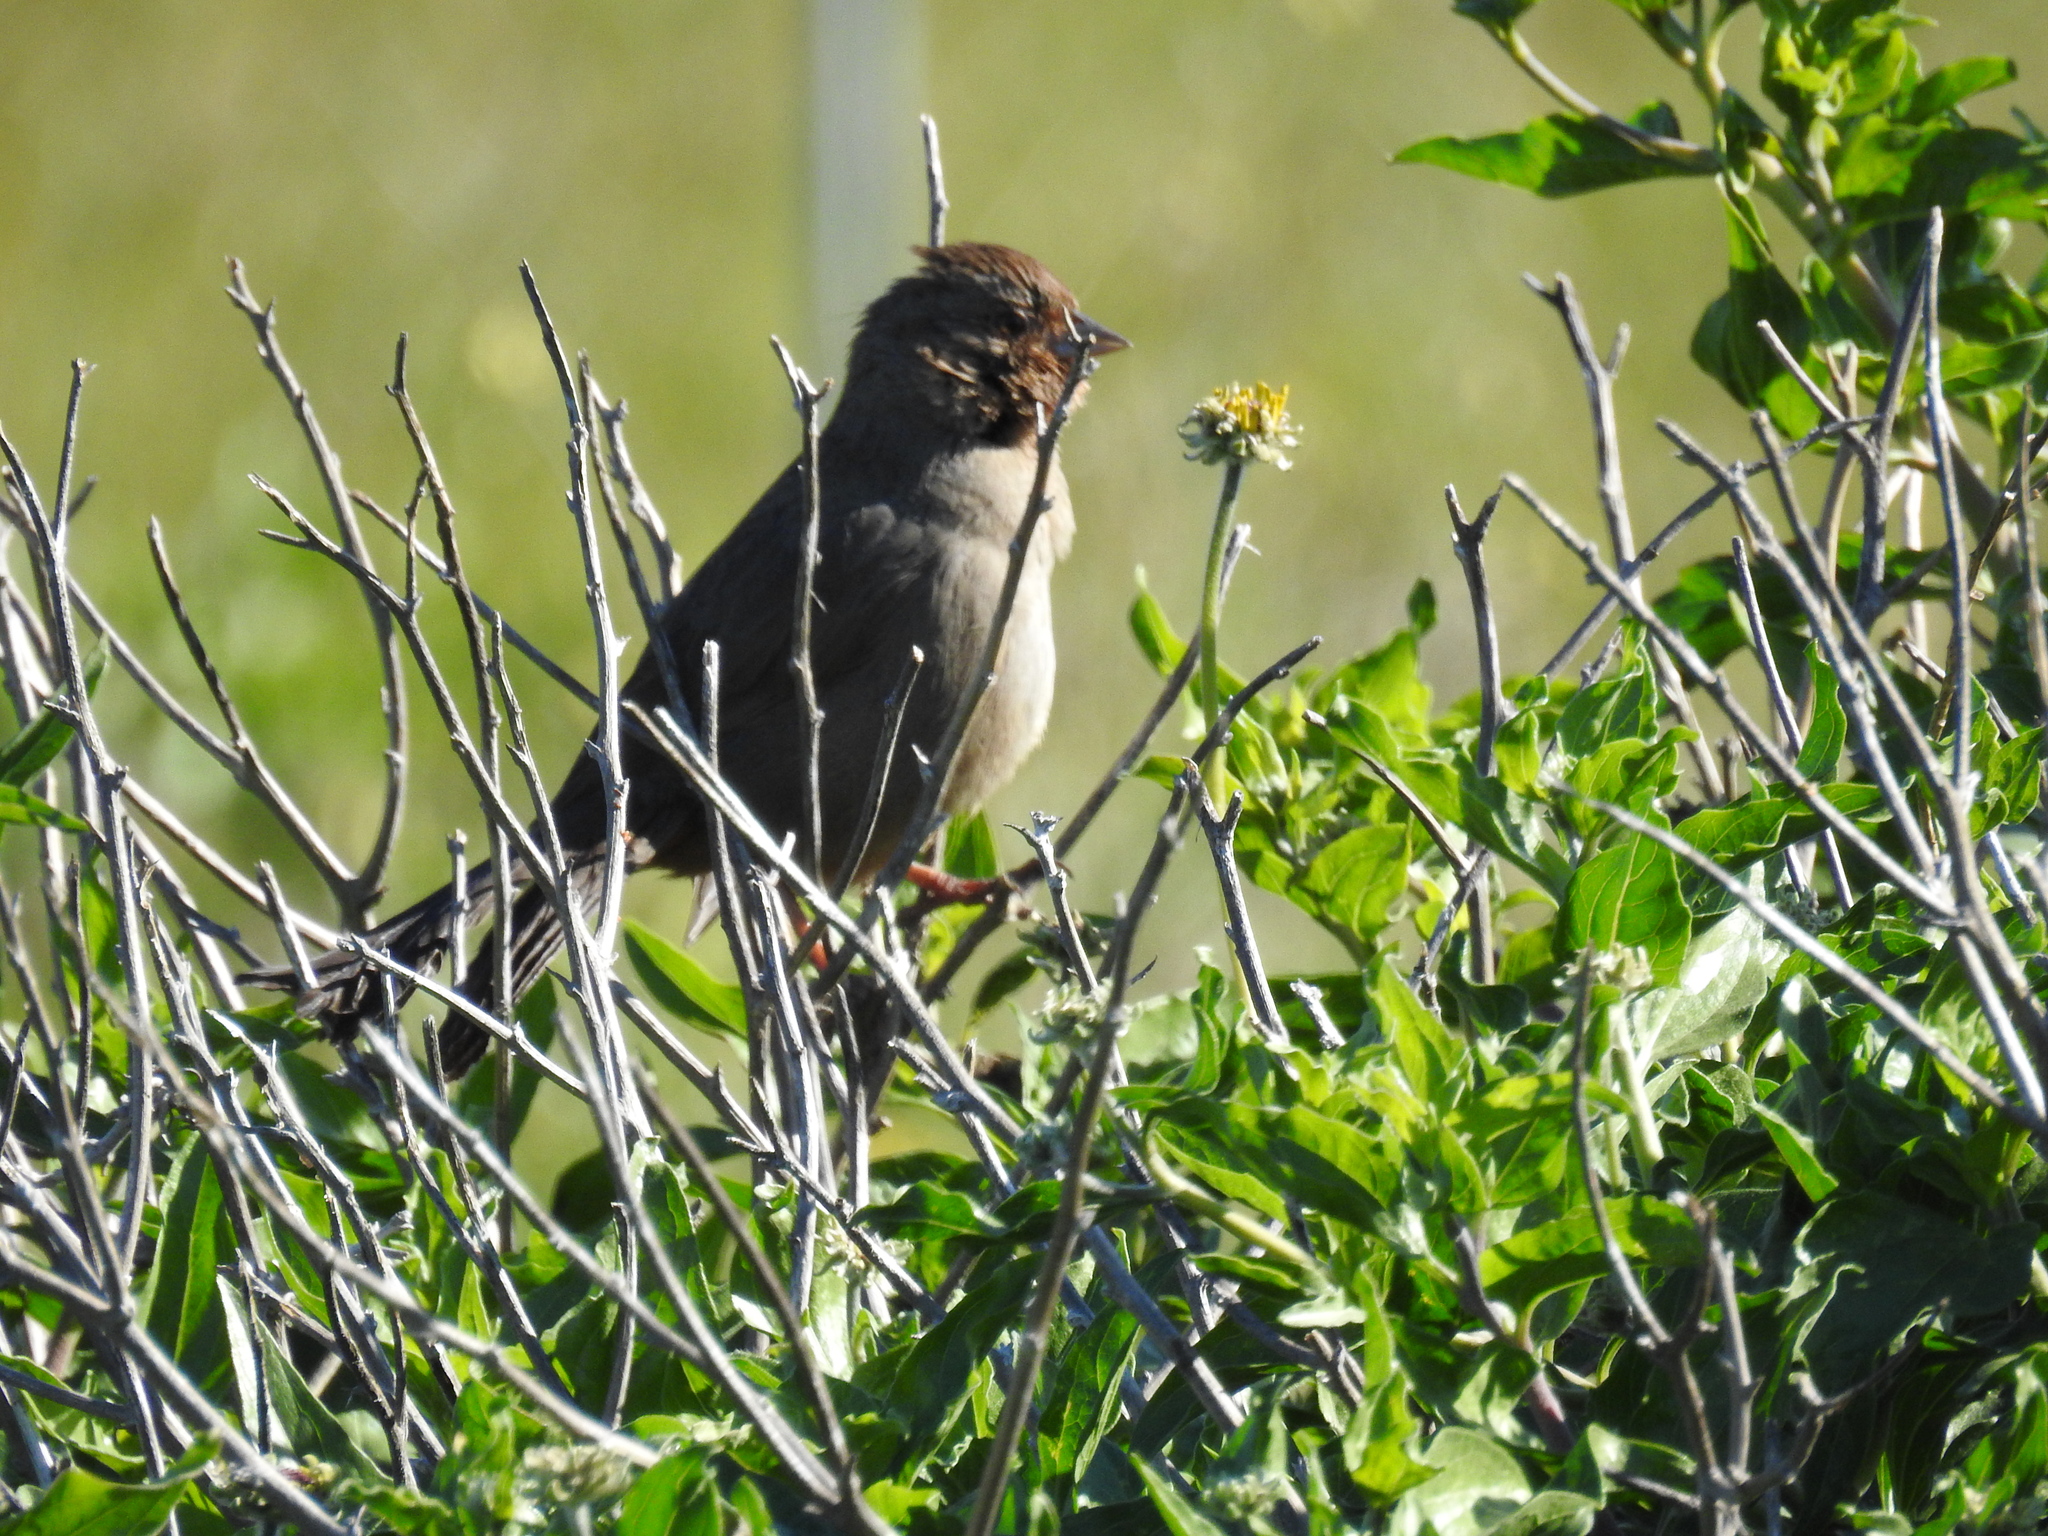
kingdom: Animalia
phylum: Chordata
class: Aves
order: Passeriformes
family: Passerellidae
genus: Melozone
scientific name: Melozone crissalis
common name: California towhee
